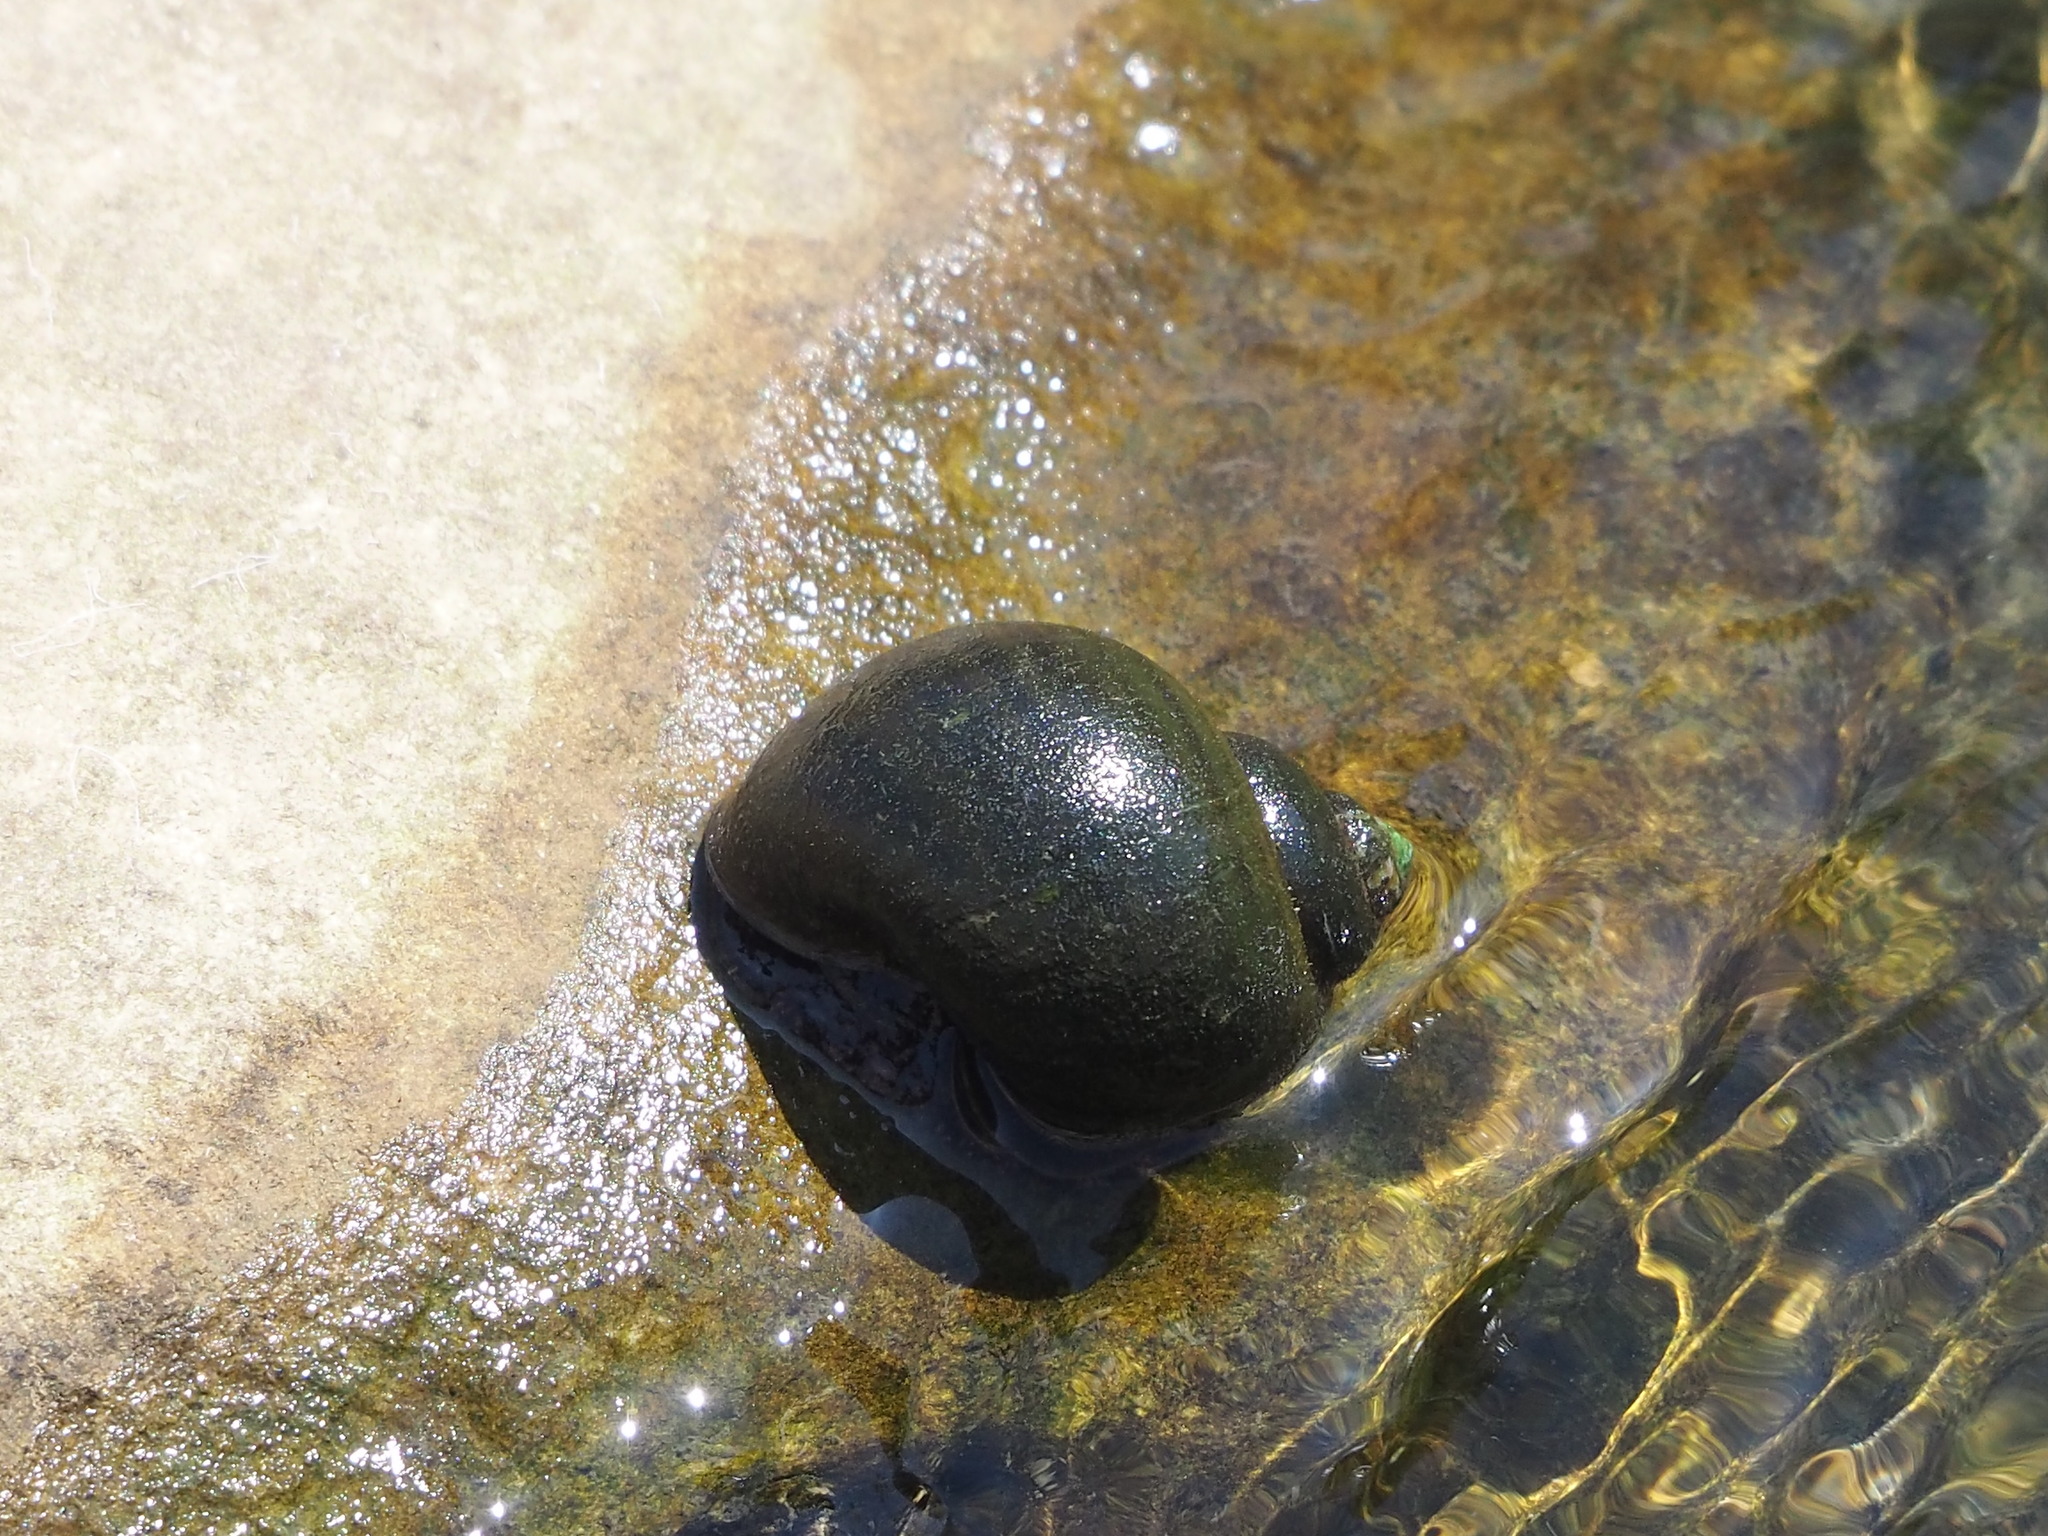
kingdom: Animalia
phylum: Mollusca
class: Gastropoda
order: Architaenioglossa
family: Ampullariidae
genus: Pomacea
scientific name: Pomacea canaliculata
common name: Channeled applesnail
